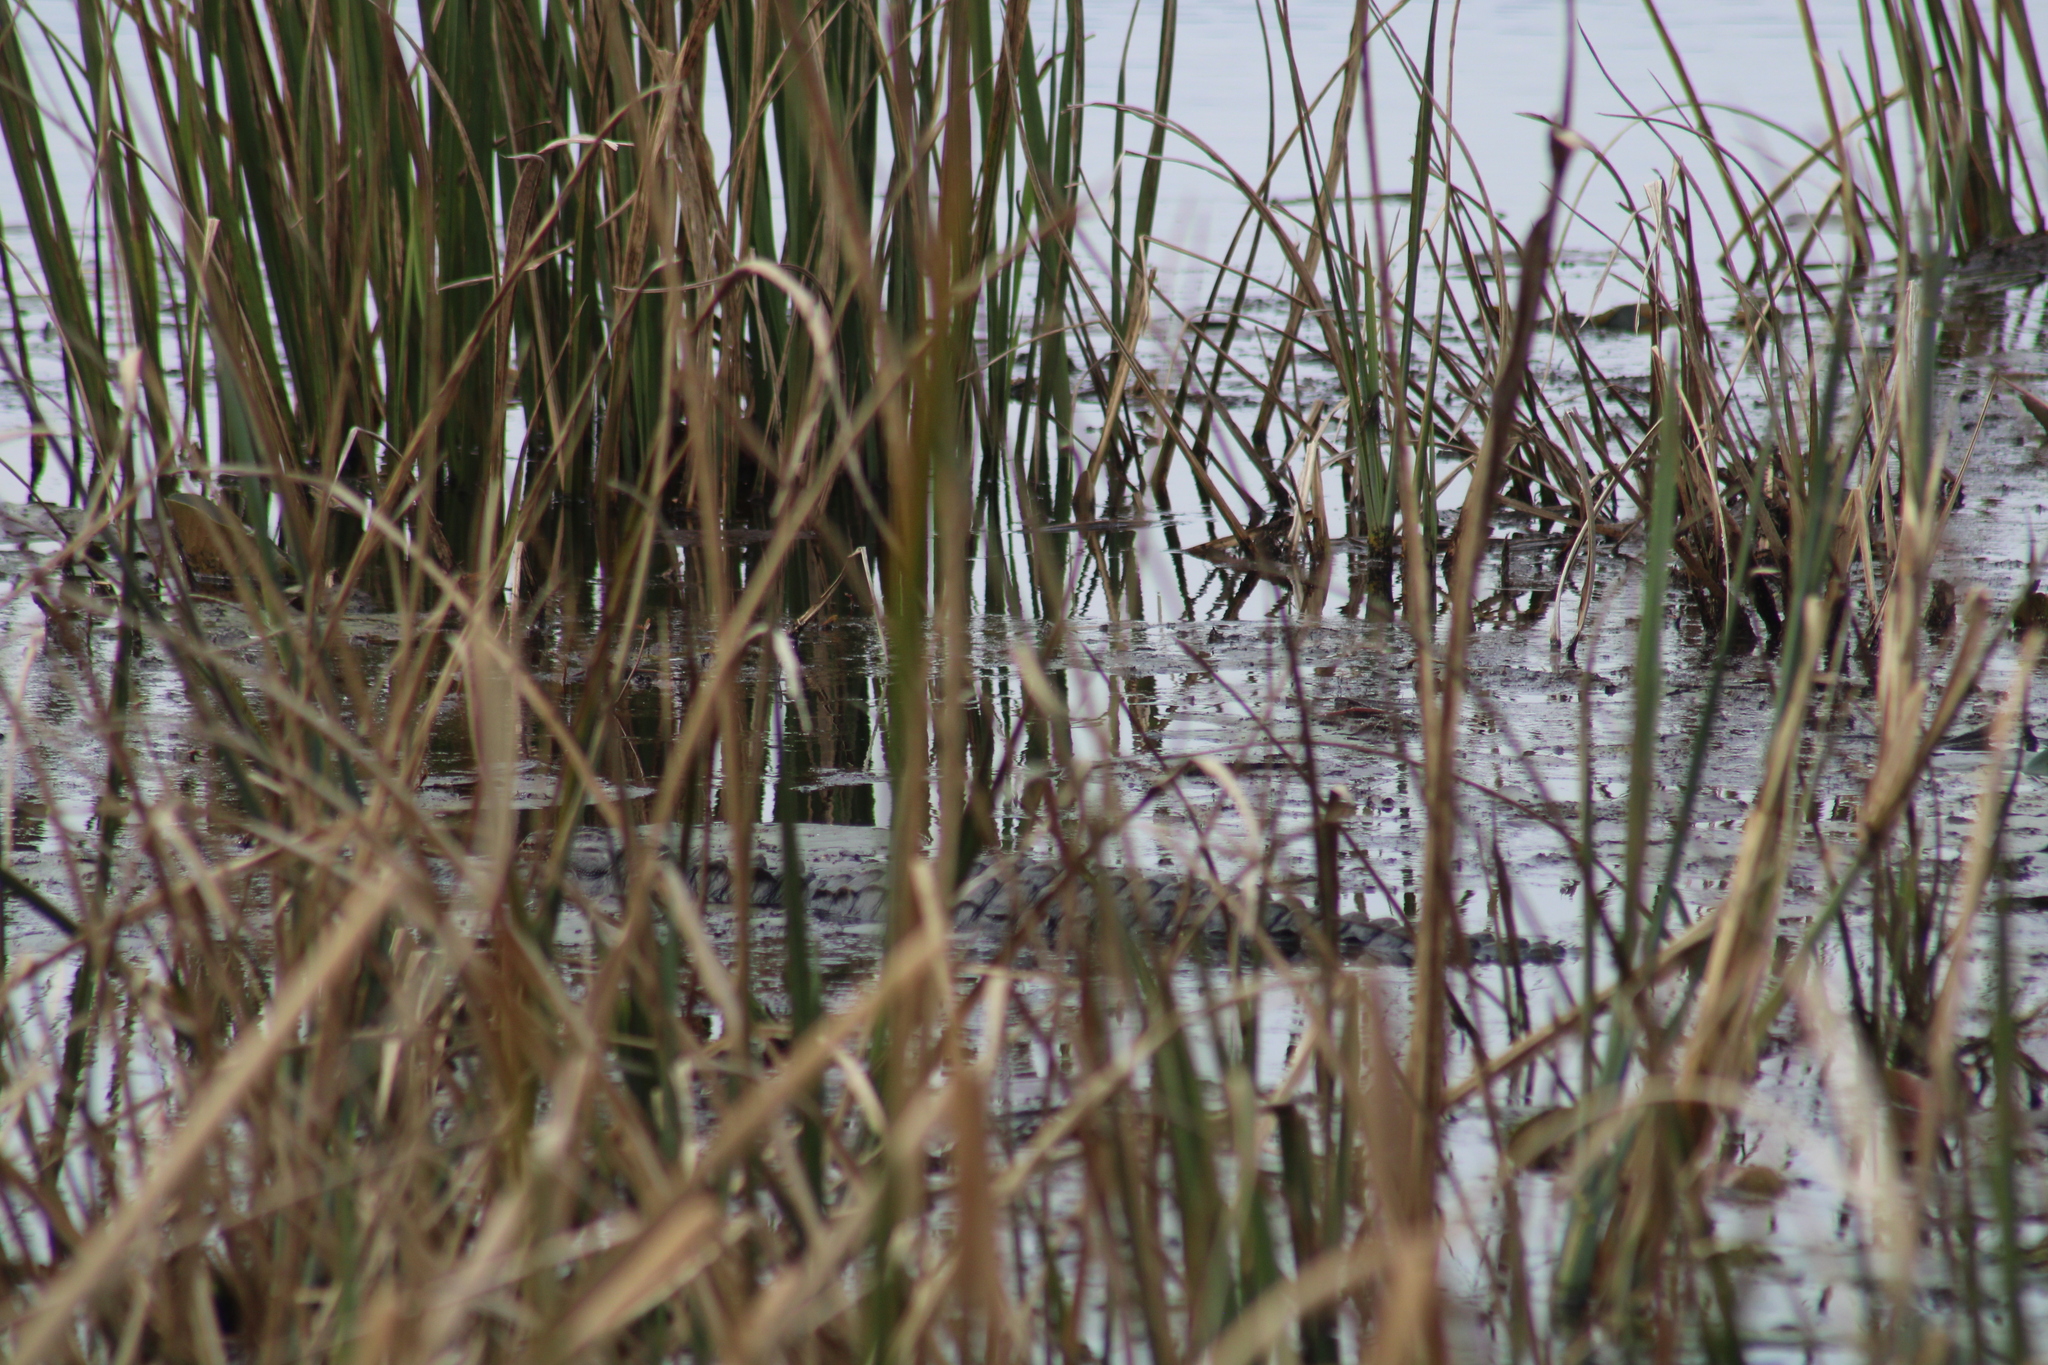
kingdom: Animalia
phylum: Chordata
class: Crocodylia
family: Alligatoridae
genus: Alligator
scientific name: Alligator mississippiensis
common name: American alligator
